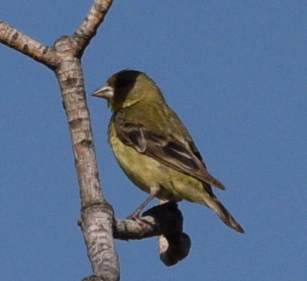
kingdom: Animalia
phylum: Chordata
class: Aves
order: Passeriformes
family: Fringillidae
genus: Spinus
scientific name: Spinus psaltria
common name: Lesser goldfinch
